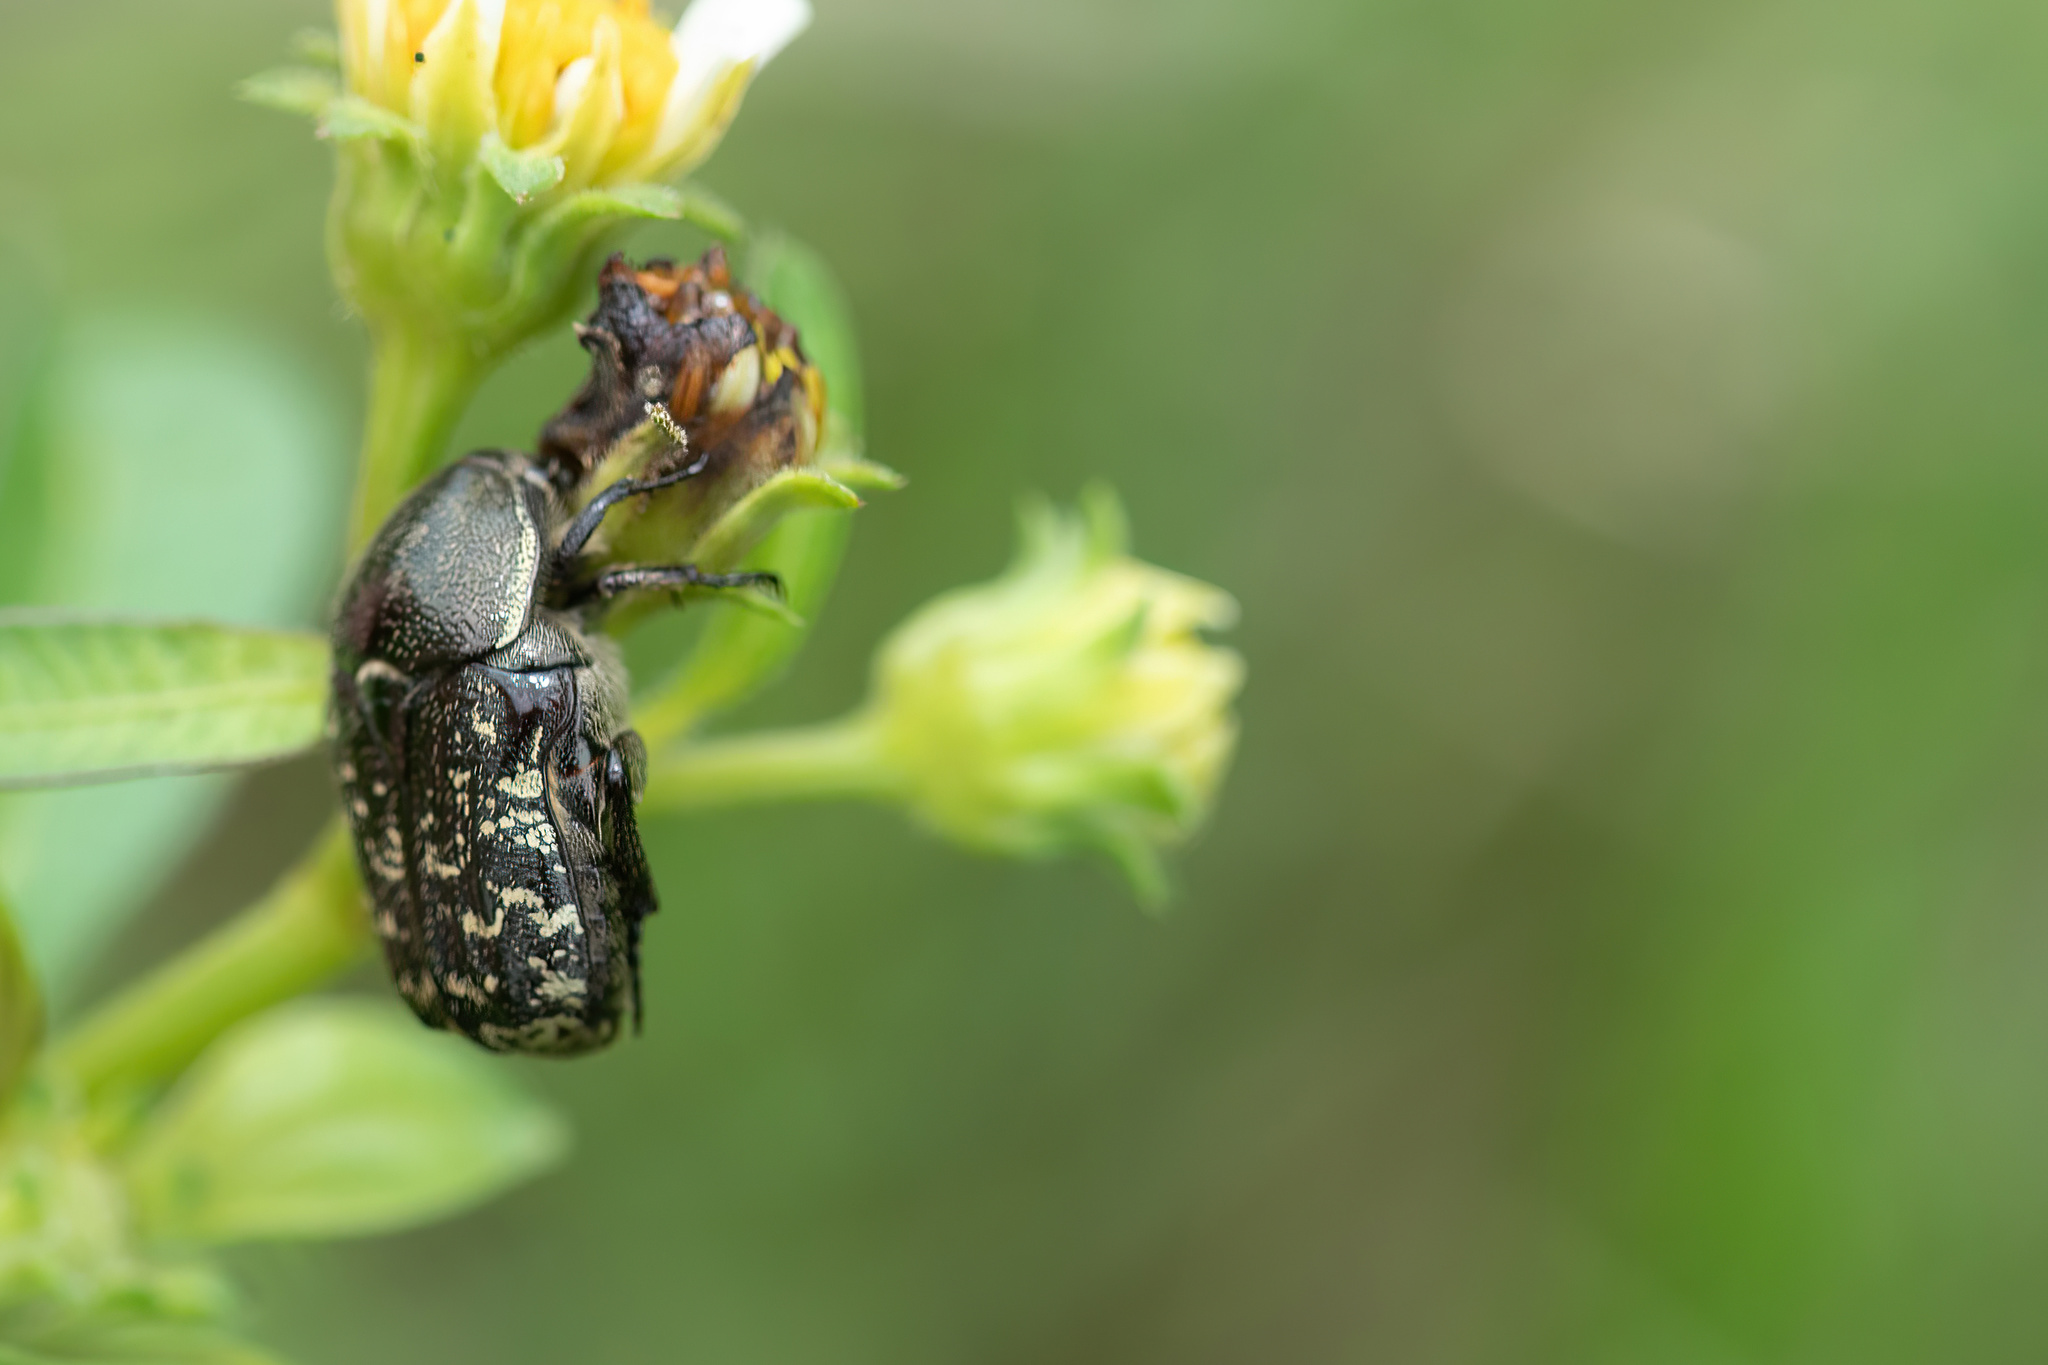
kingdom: Animalia
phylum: Arthropoda
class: Insecta
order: Coleoptera
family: Scarabaeidae
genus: Euphoria
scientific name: Euphoria sepulcralis
